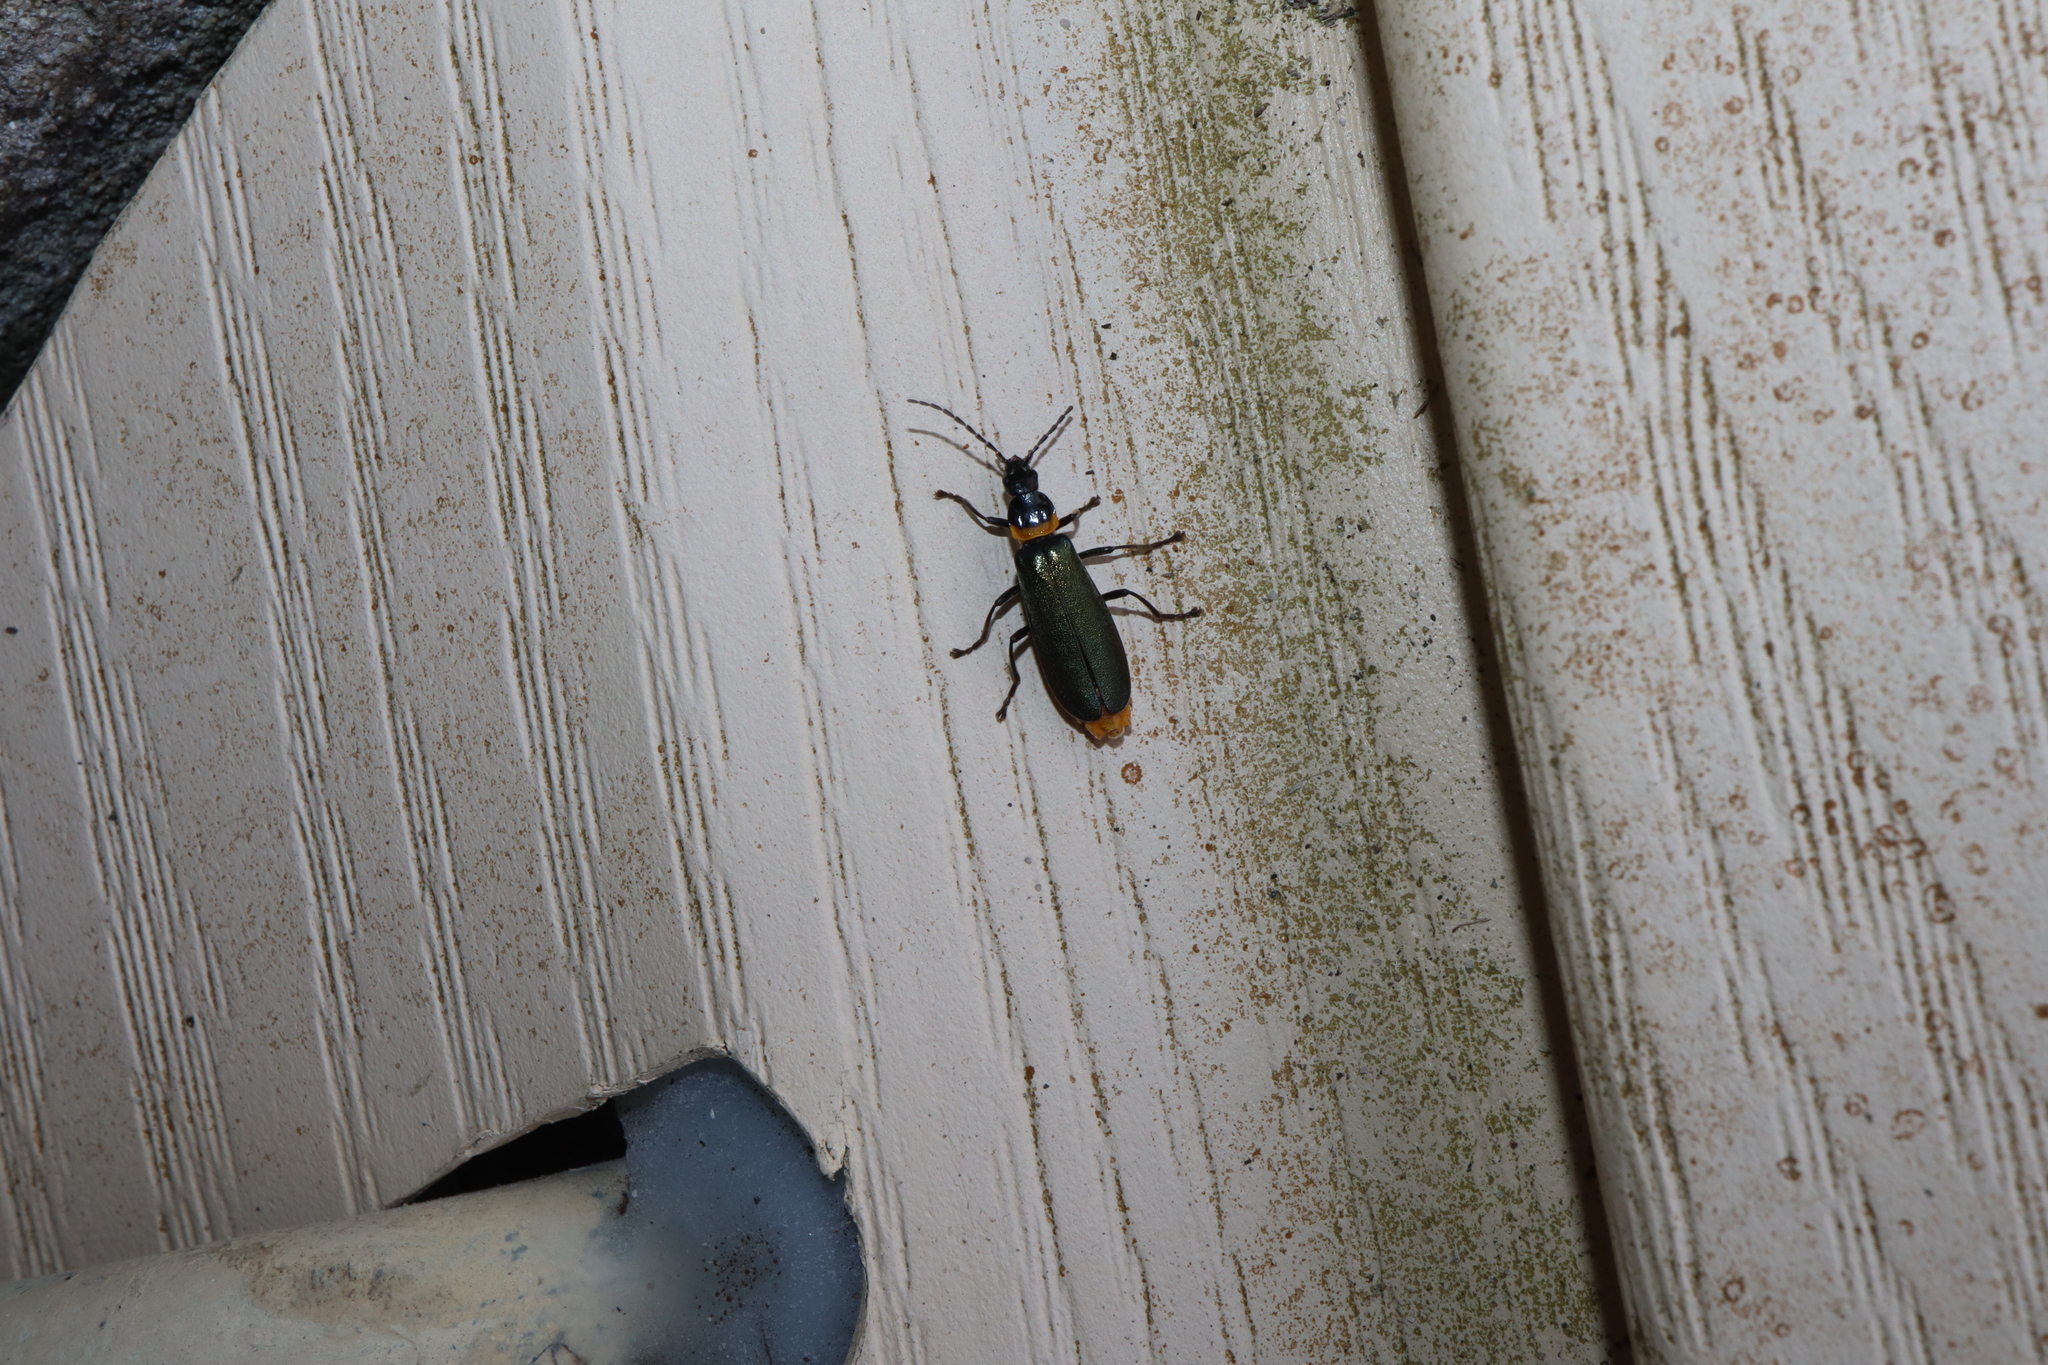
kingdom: Animalia
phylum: Arthropoda
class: Insecta
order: Coleoptera
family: Cantharidae
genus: Chauliognathus
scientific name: Chauliognathus
